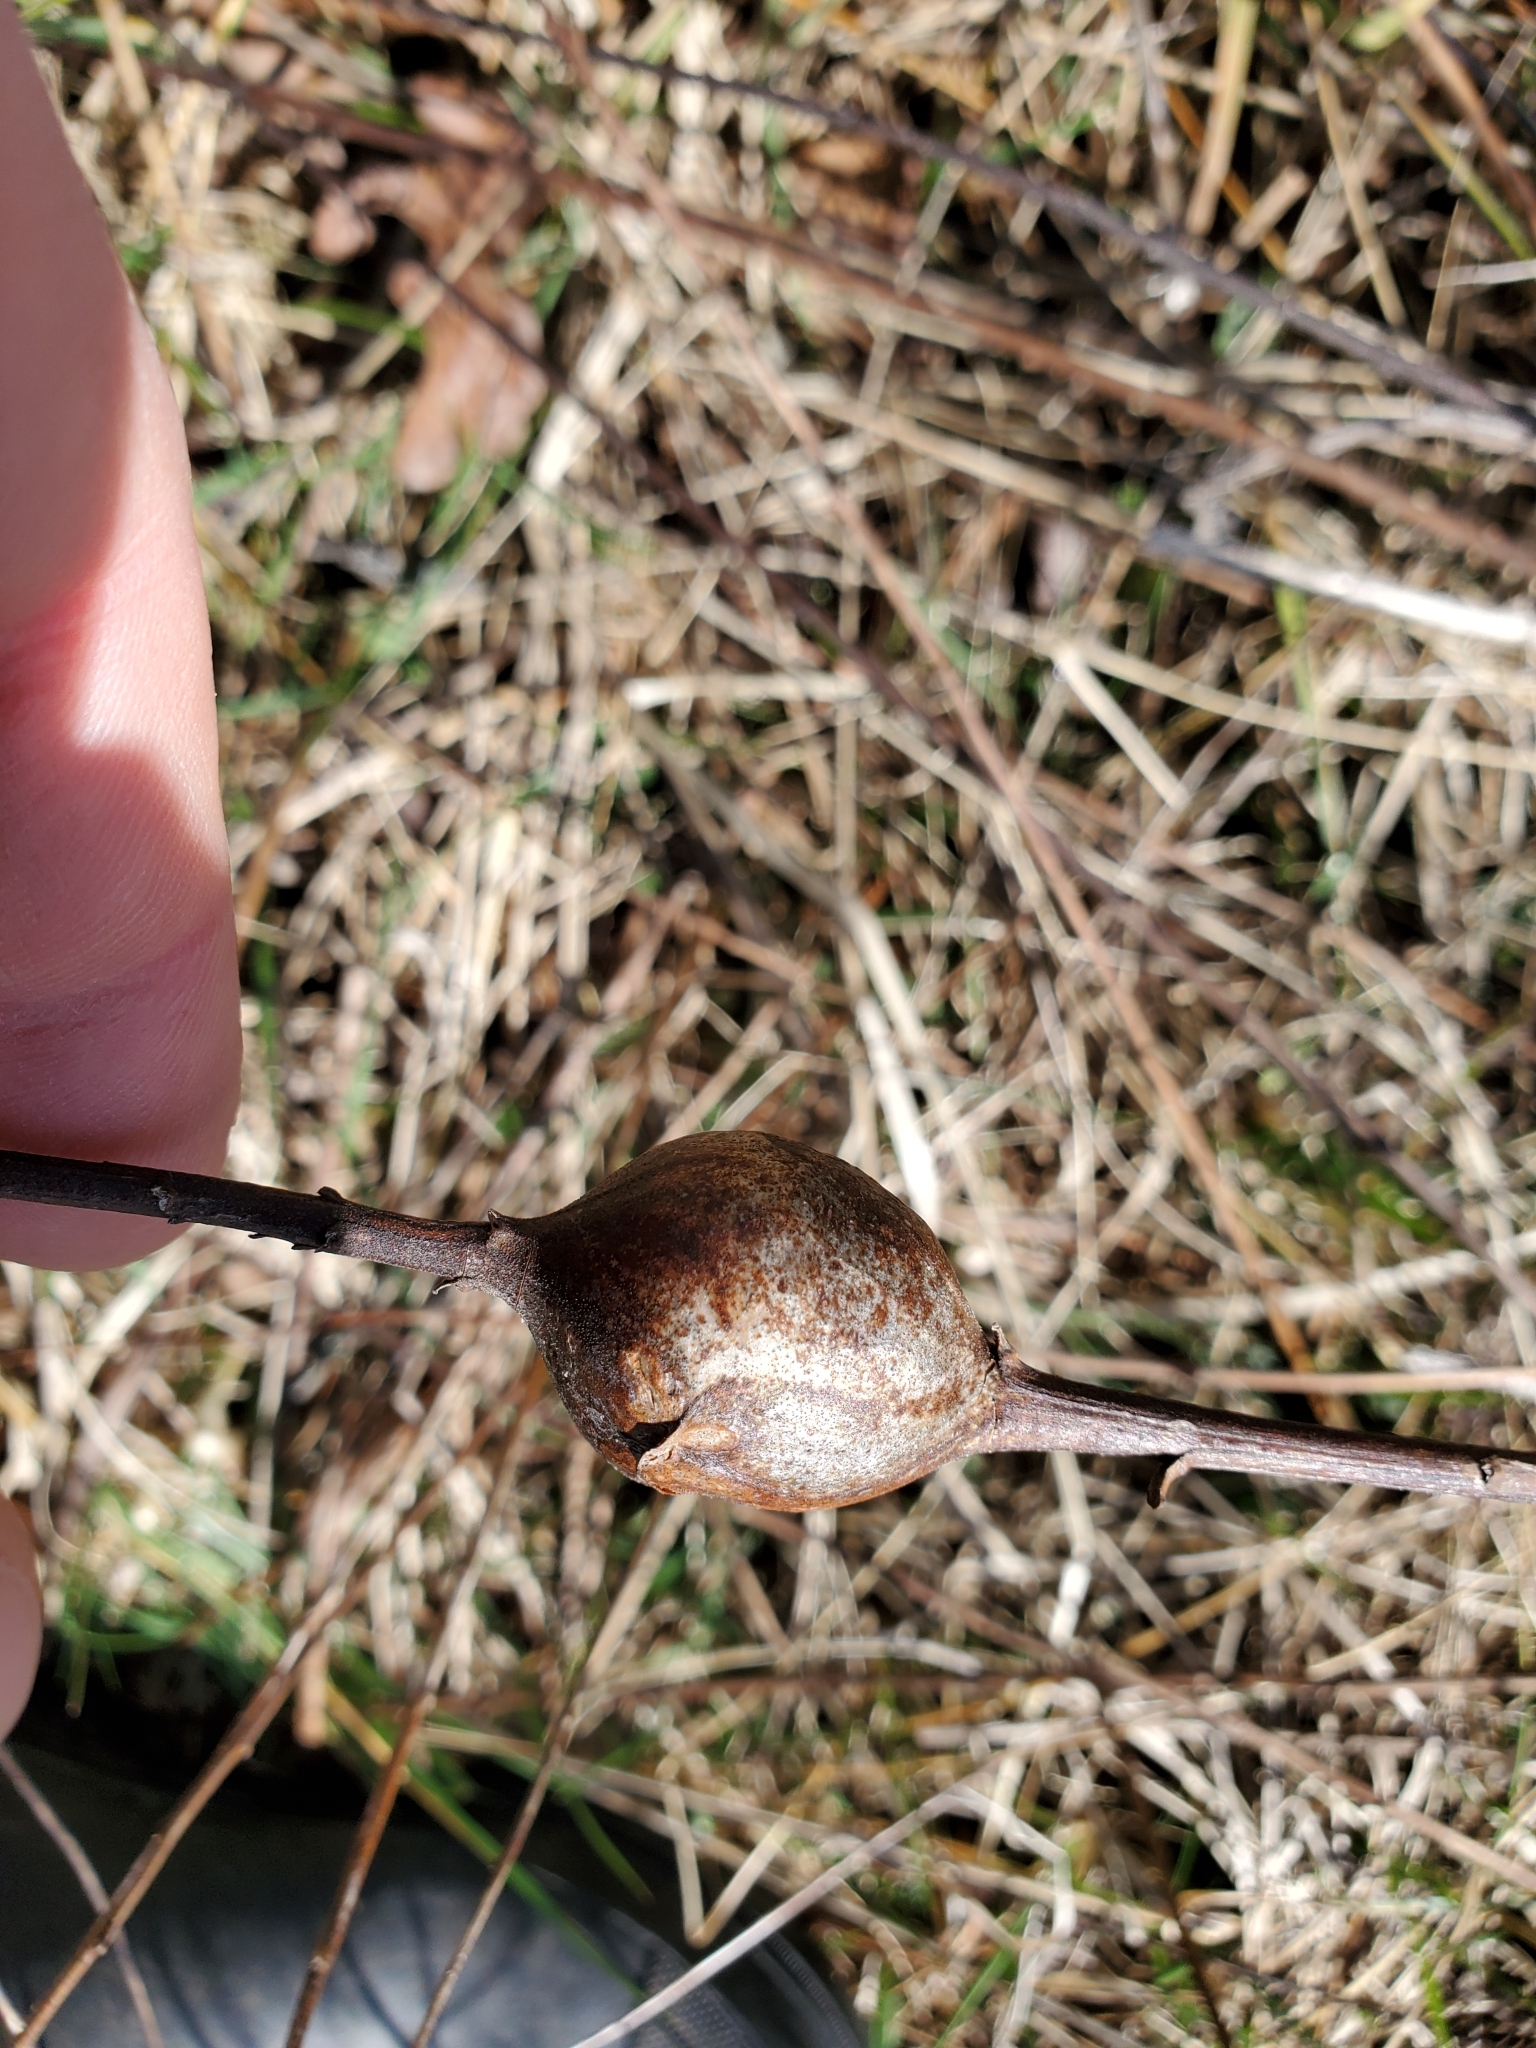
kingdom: Animalia
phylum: Arthropoda
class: Insecta
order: Diptera
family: Tephritidae
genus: Eurosta
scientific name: Eurosta solidaginis
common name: Goldenrod gall fly
